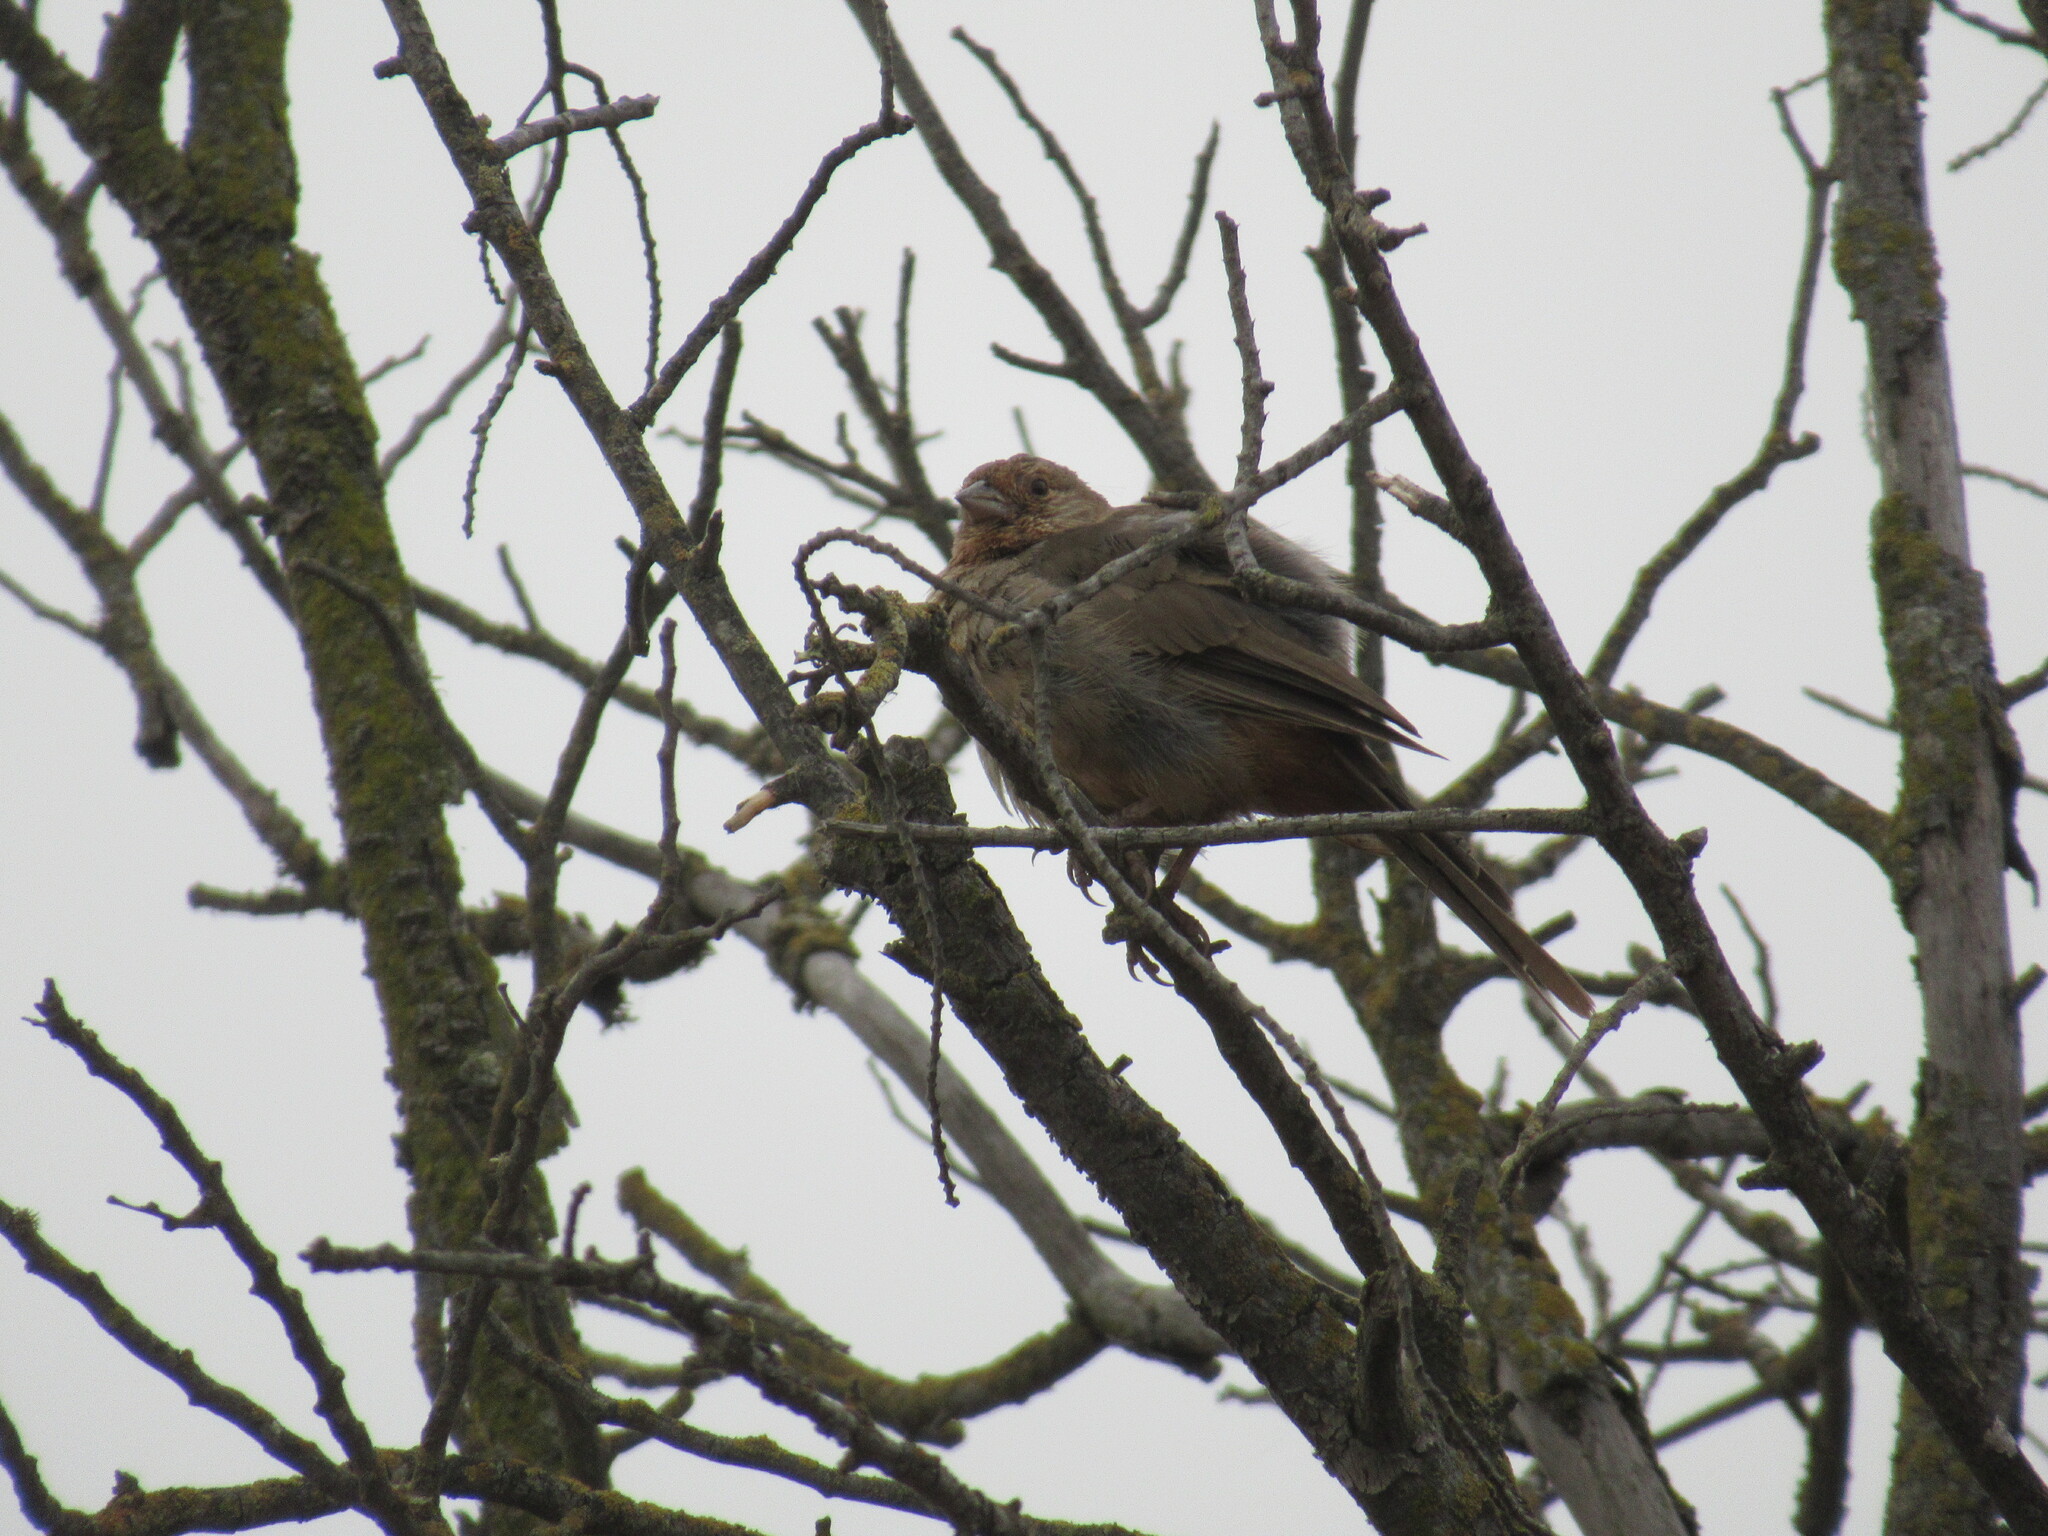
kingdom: Animalia
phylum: Chordata
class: Aves
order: Passeriformes
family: Passerellidae
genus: Melozone
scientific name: Melozone crissalis
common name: California towhee
